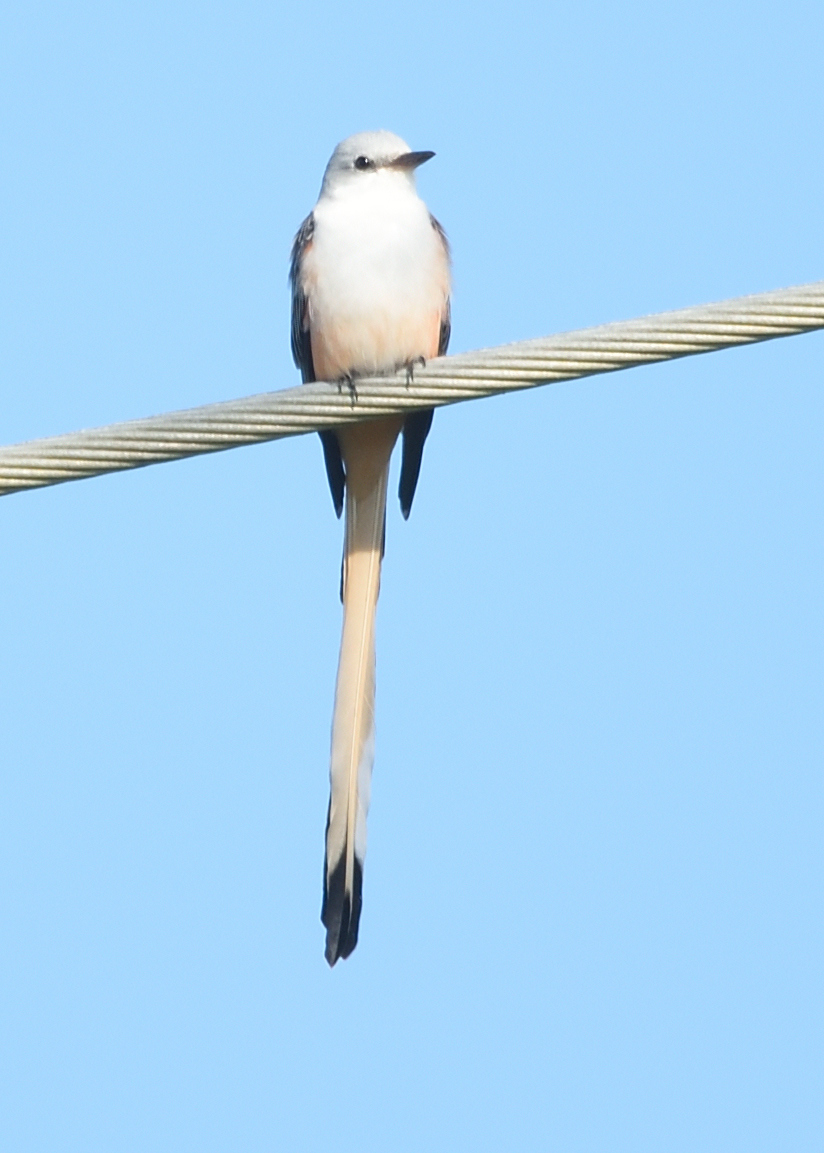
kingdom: Animalia
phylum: Chordata
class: Aves
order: Passeriformes
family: Tyrannidae
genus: Tyrannus
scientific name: Tyrannus forficatus
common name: Scissor-tailed flycatcher
